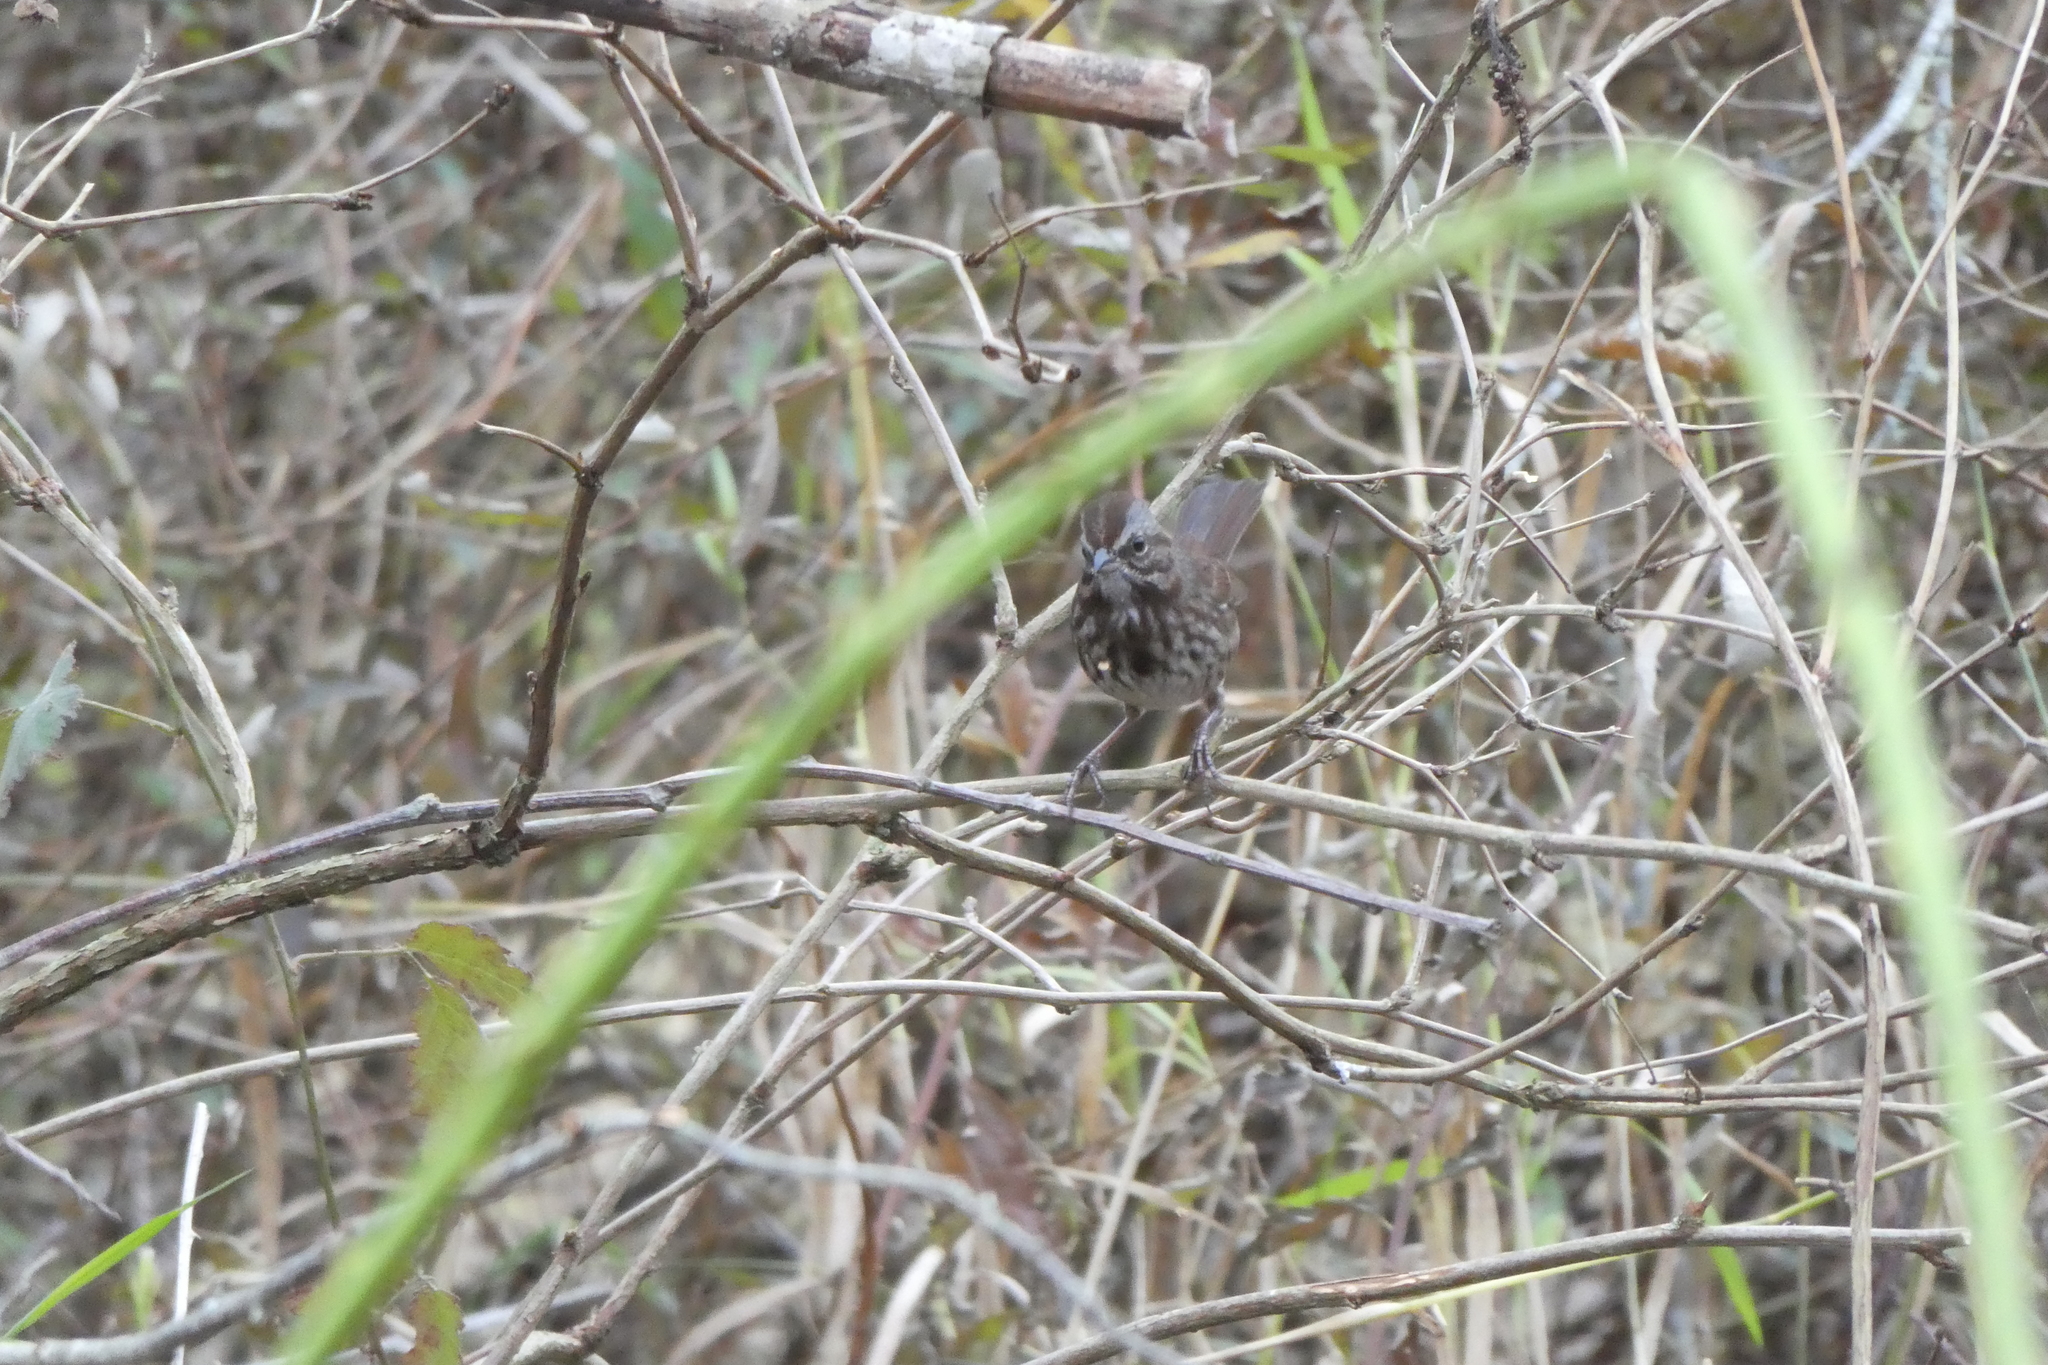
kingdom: Animalia
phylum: Chordata
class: Aves
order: Passeriformes
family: Passerellidae
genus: Melospiza
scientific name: Melospiza melodia
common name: Song sparrow
